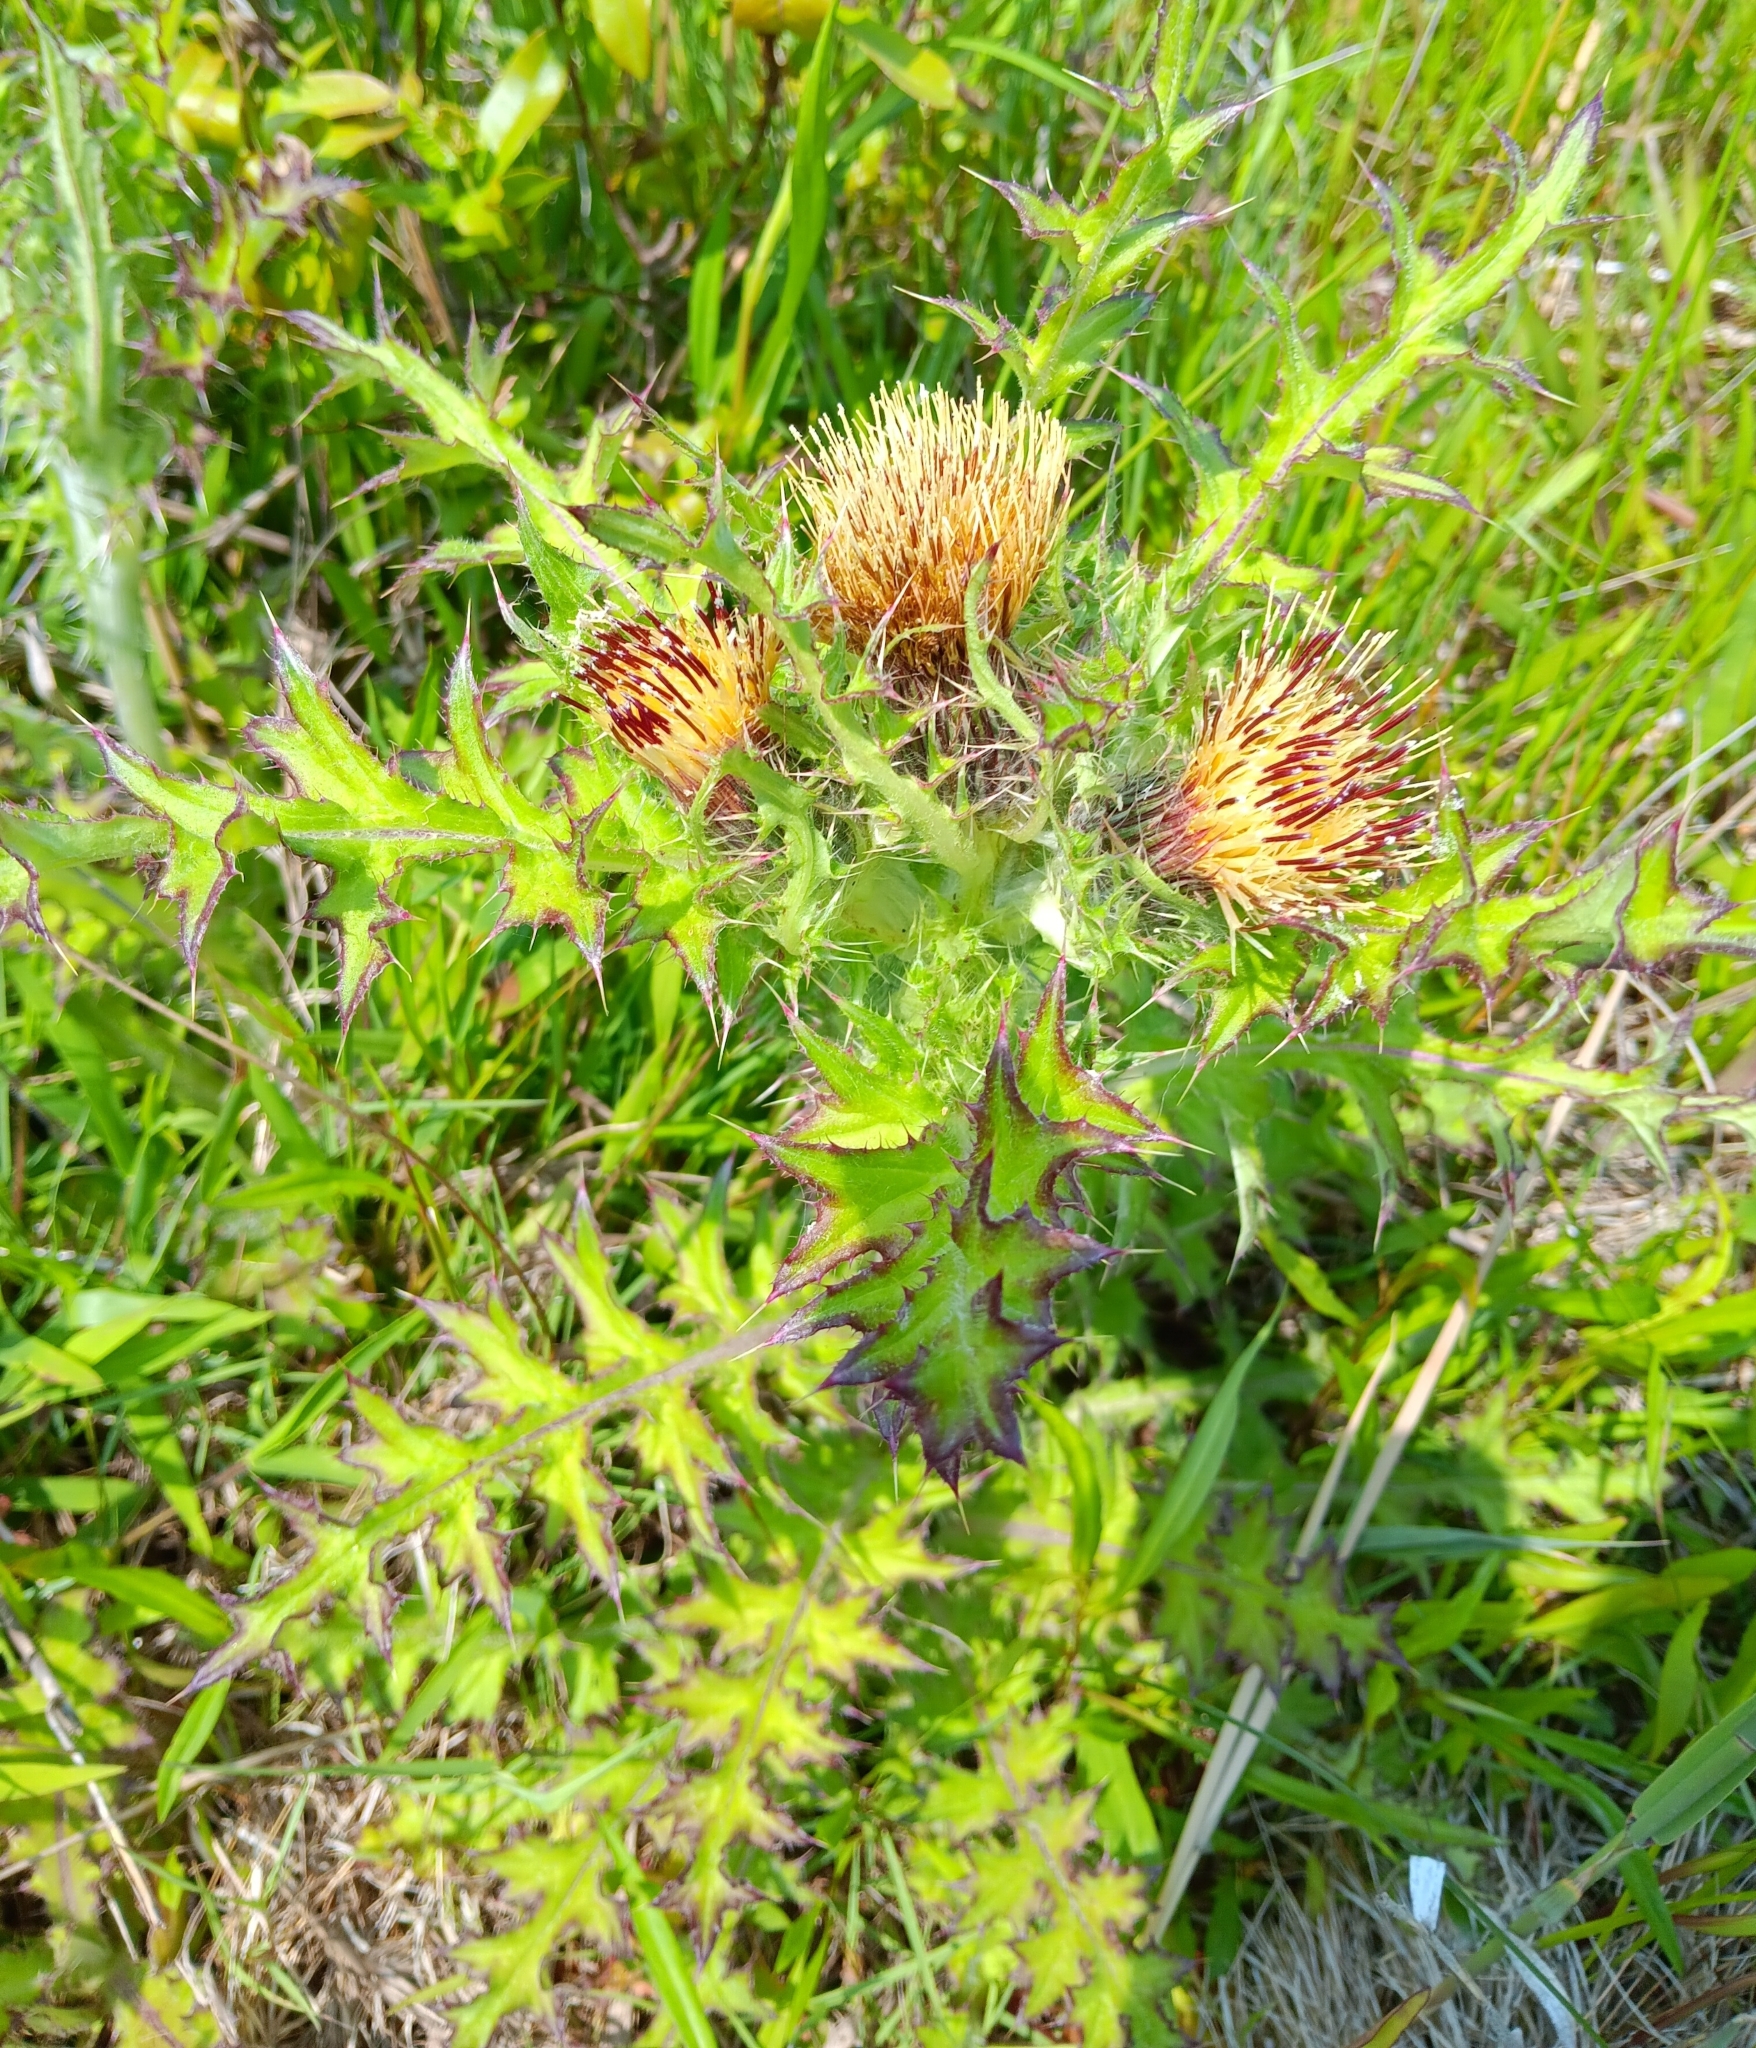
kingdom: Plantae
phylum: Tracheophyta
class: Magnoliopsida
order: Asterales
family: Asteraceae
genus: Cirsium
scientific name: Cirsium horridulum
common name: Bristly thistle
